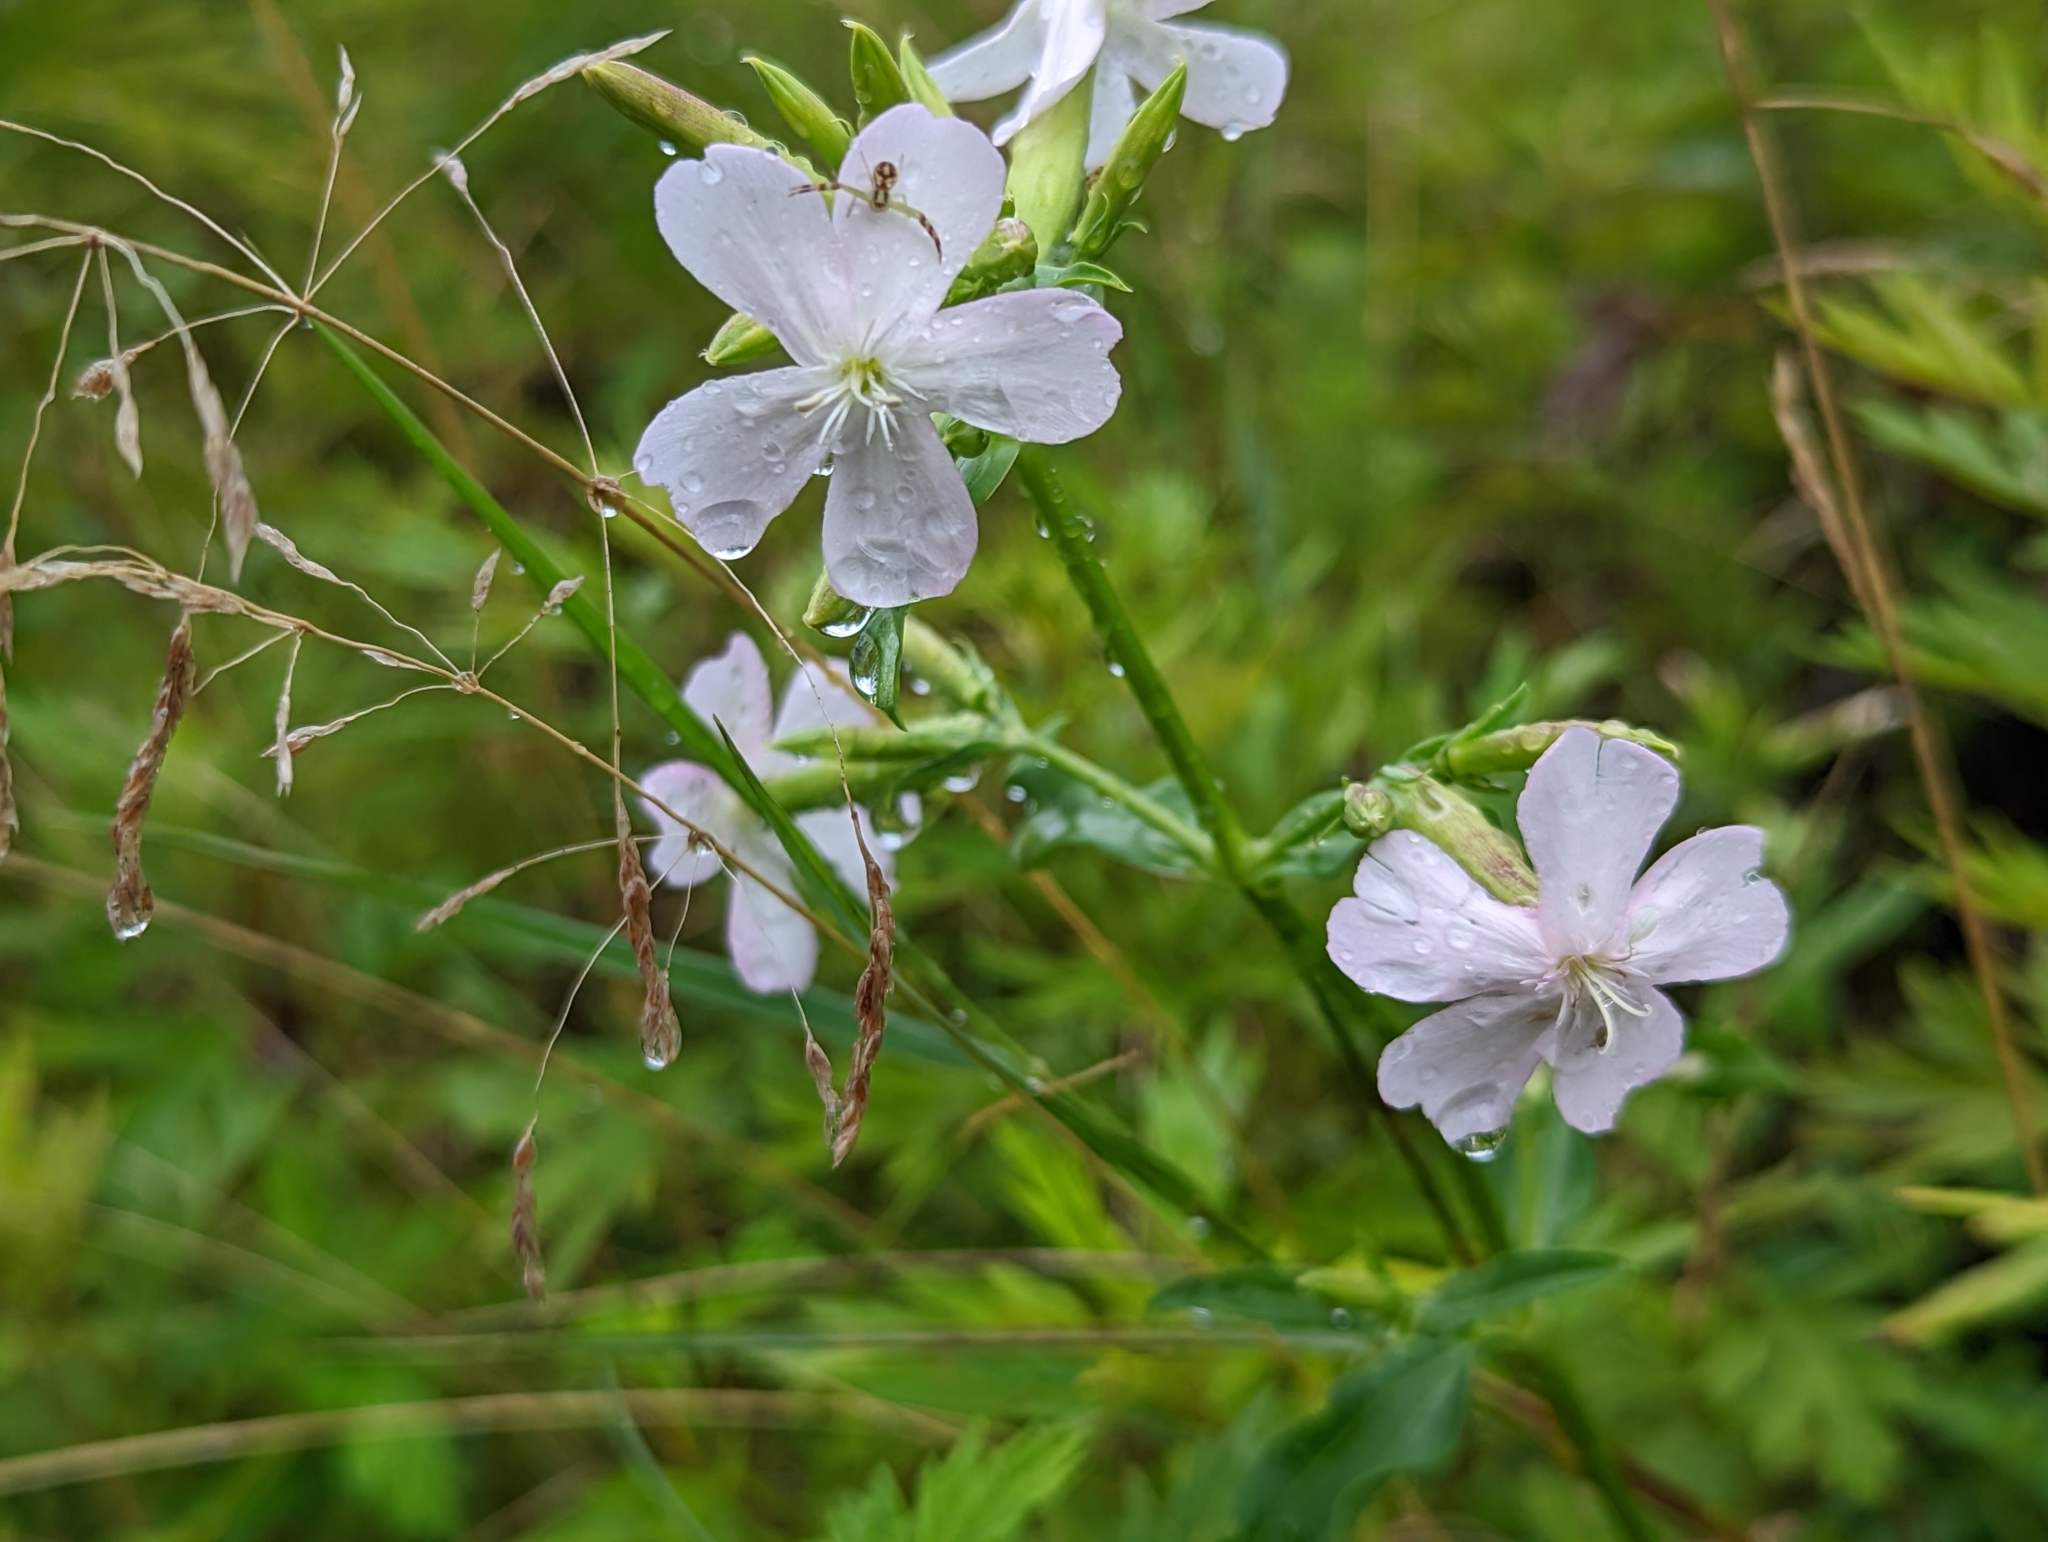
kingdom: Plantae
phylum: Tracheophyta
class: Magnoliopsida
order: Caryophyllales
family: Caryophyllaceae
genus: Saponaria
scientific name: Saponaria officinalis
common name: Soapwort
